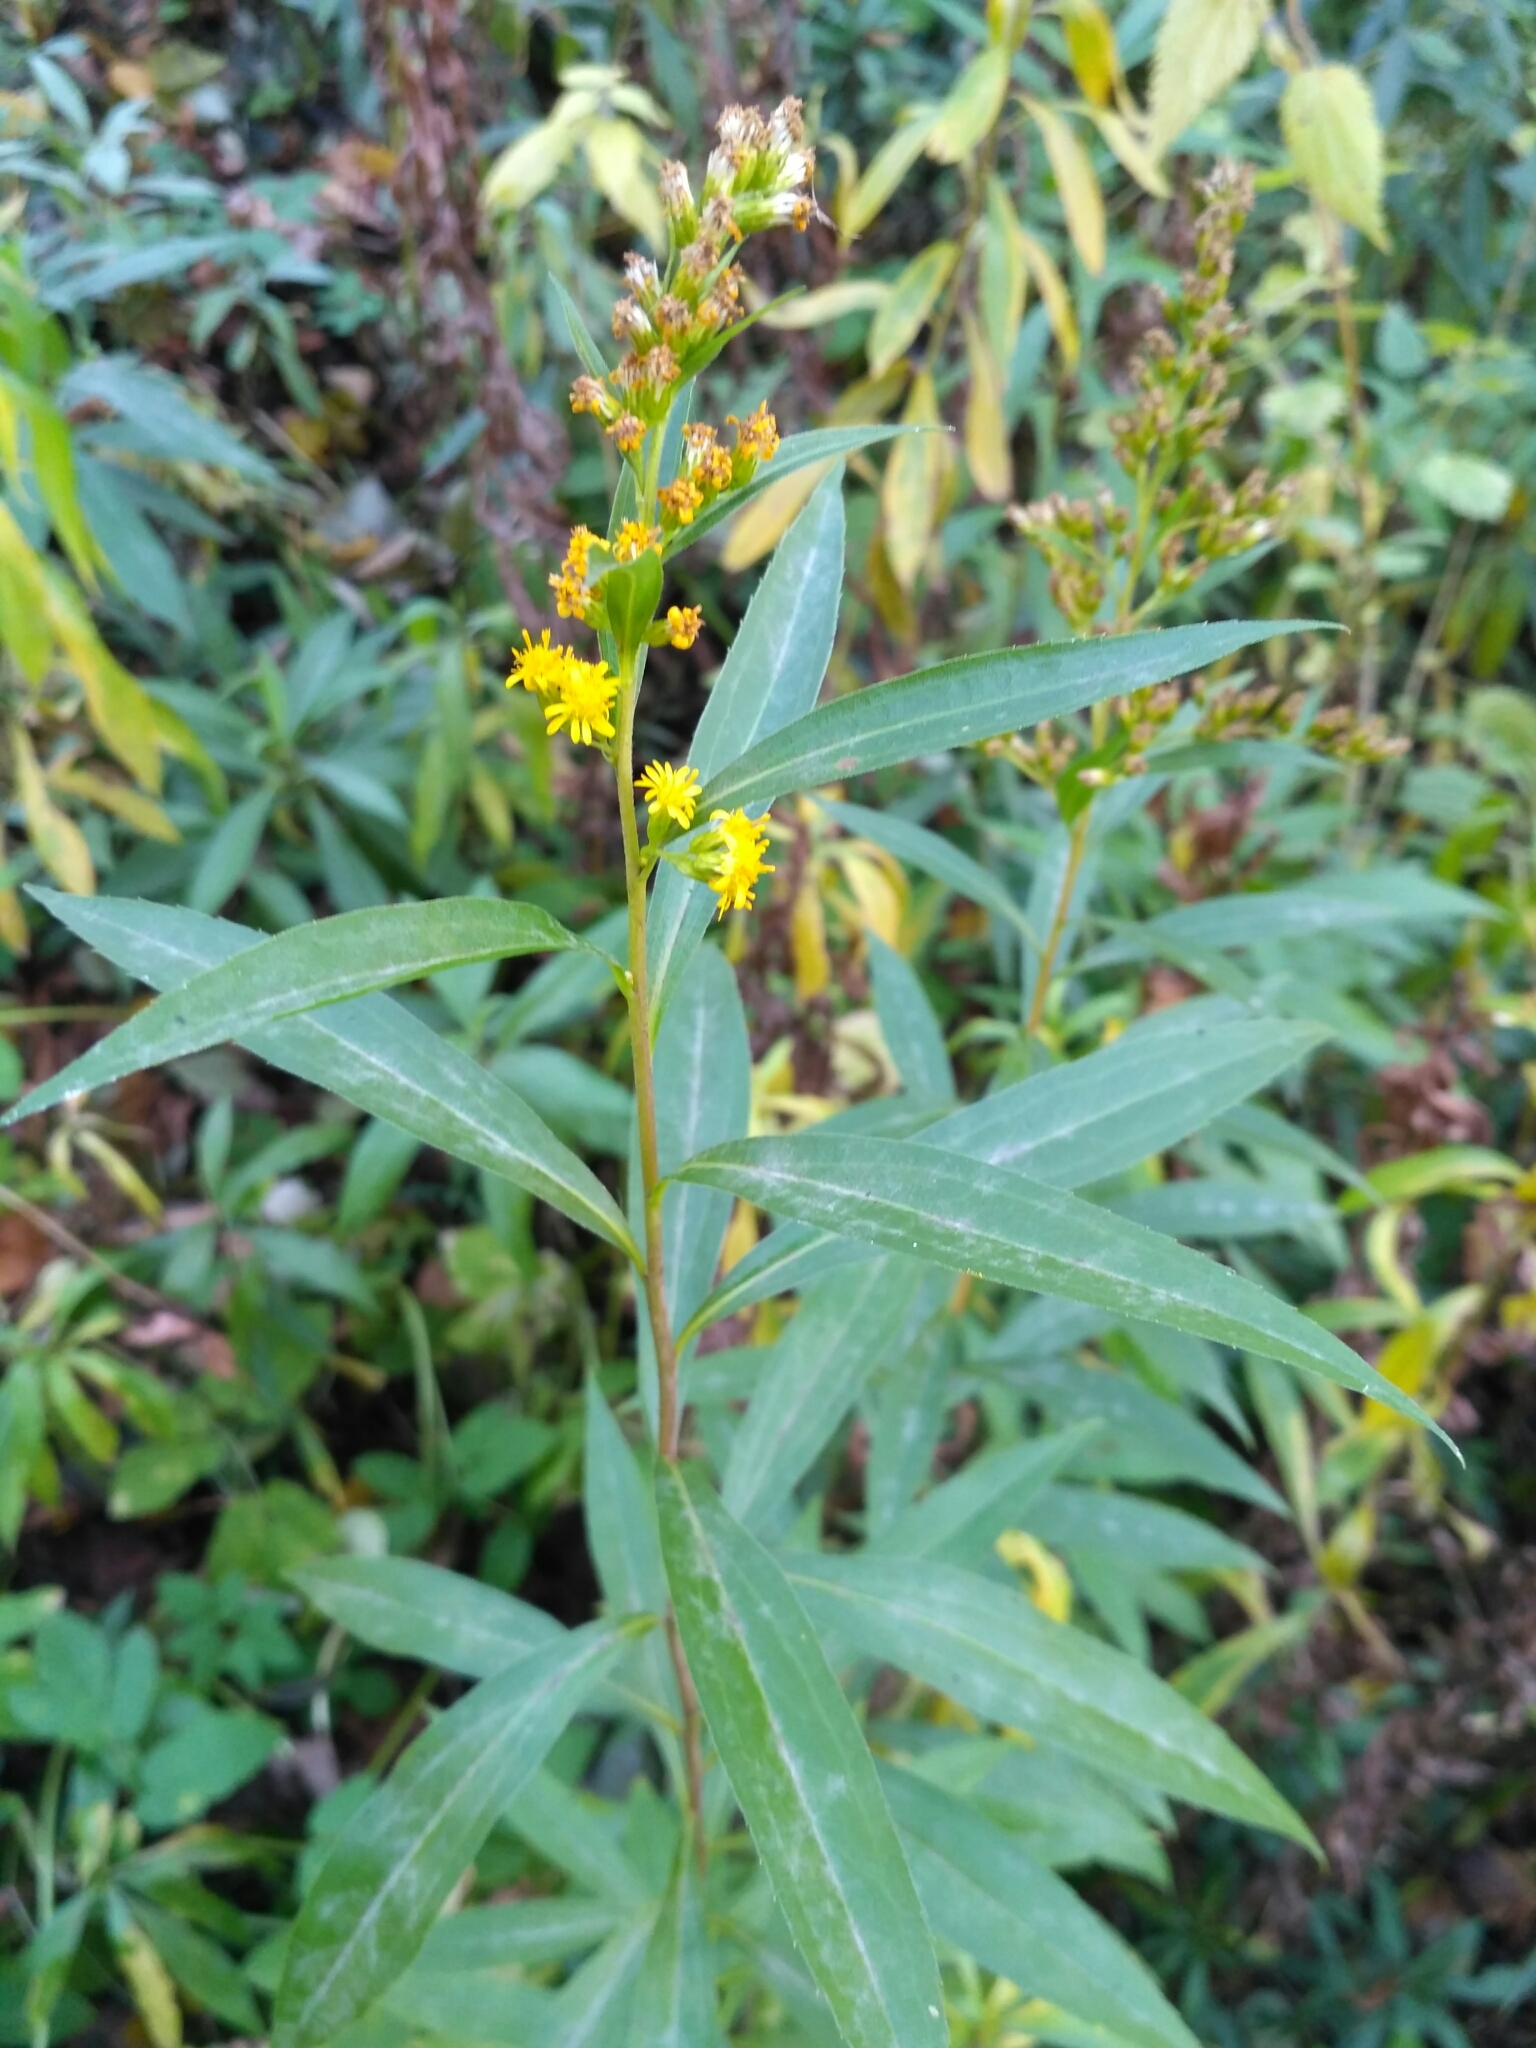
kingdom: Plantae
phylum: Tracheophyta
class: Magnoliopsida
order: Asterales
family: Asteraceae
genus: Solidago
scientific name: Solidago gigantea
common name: Giant goldenrod
